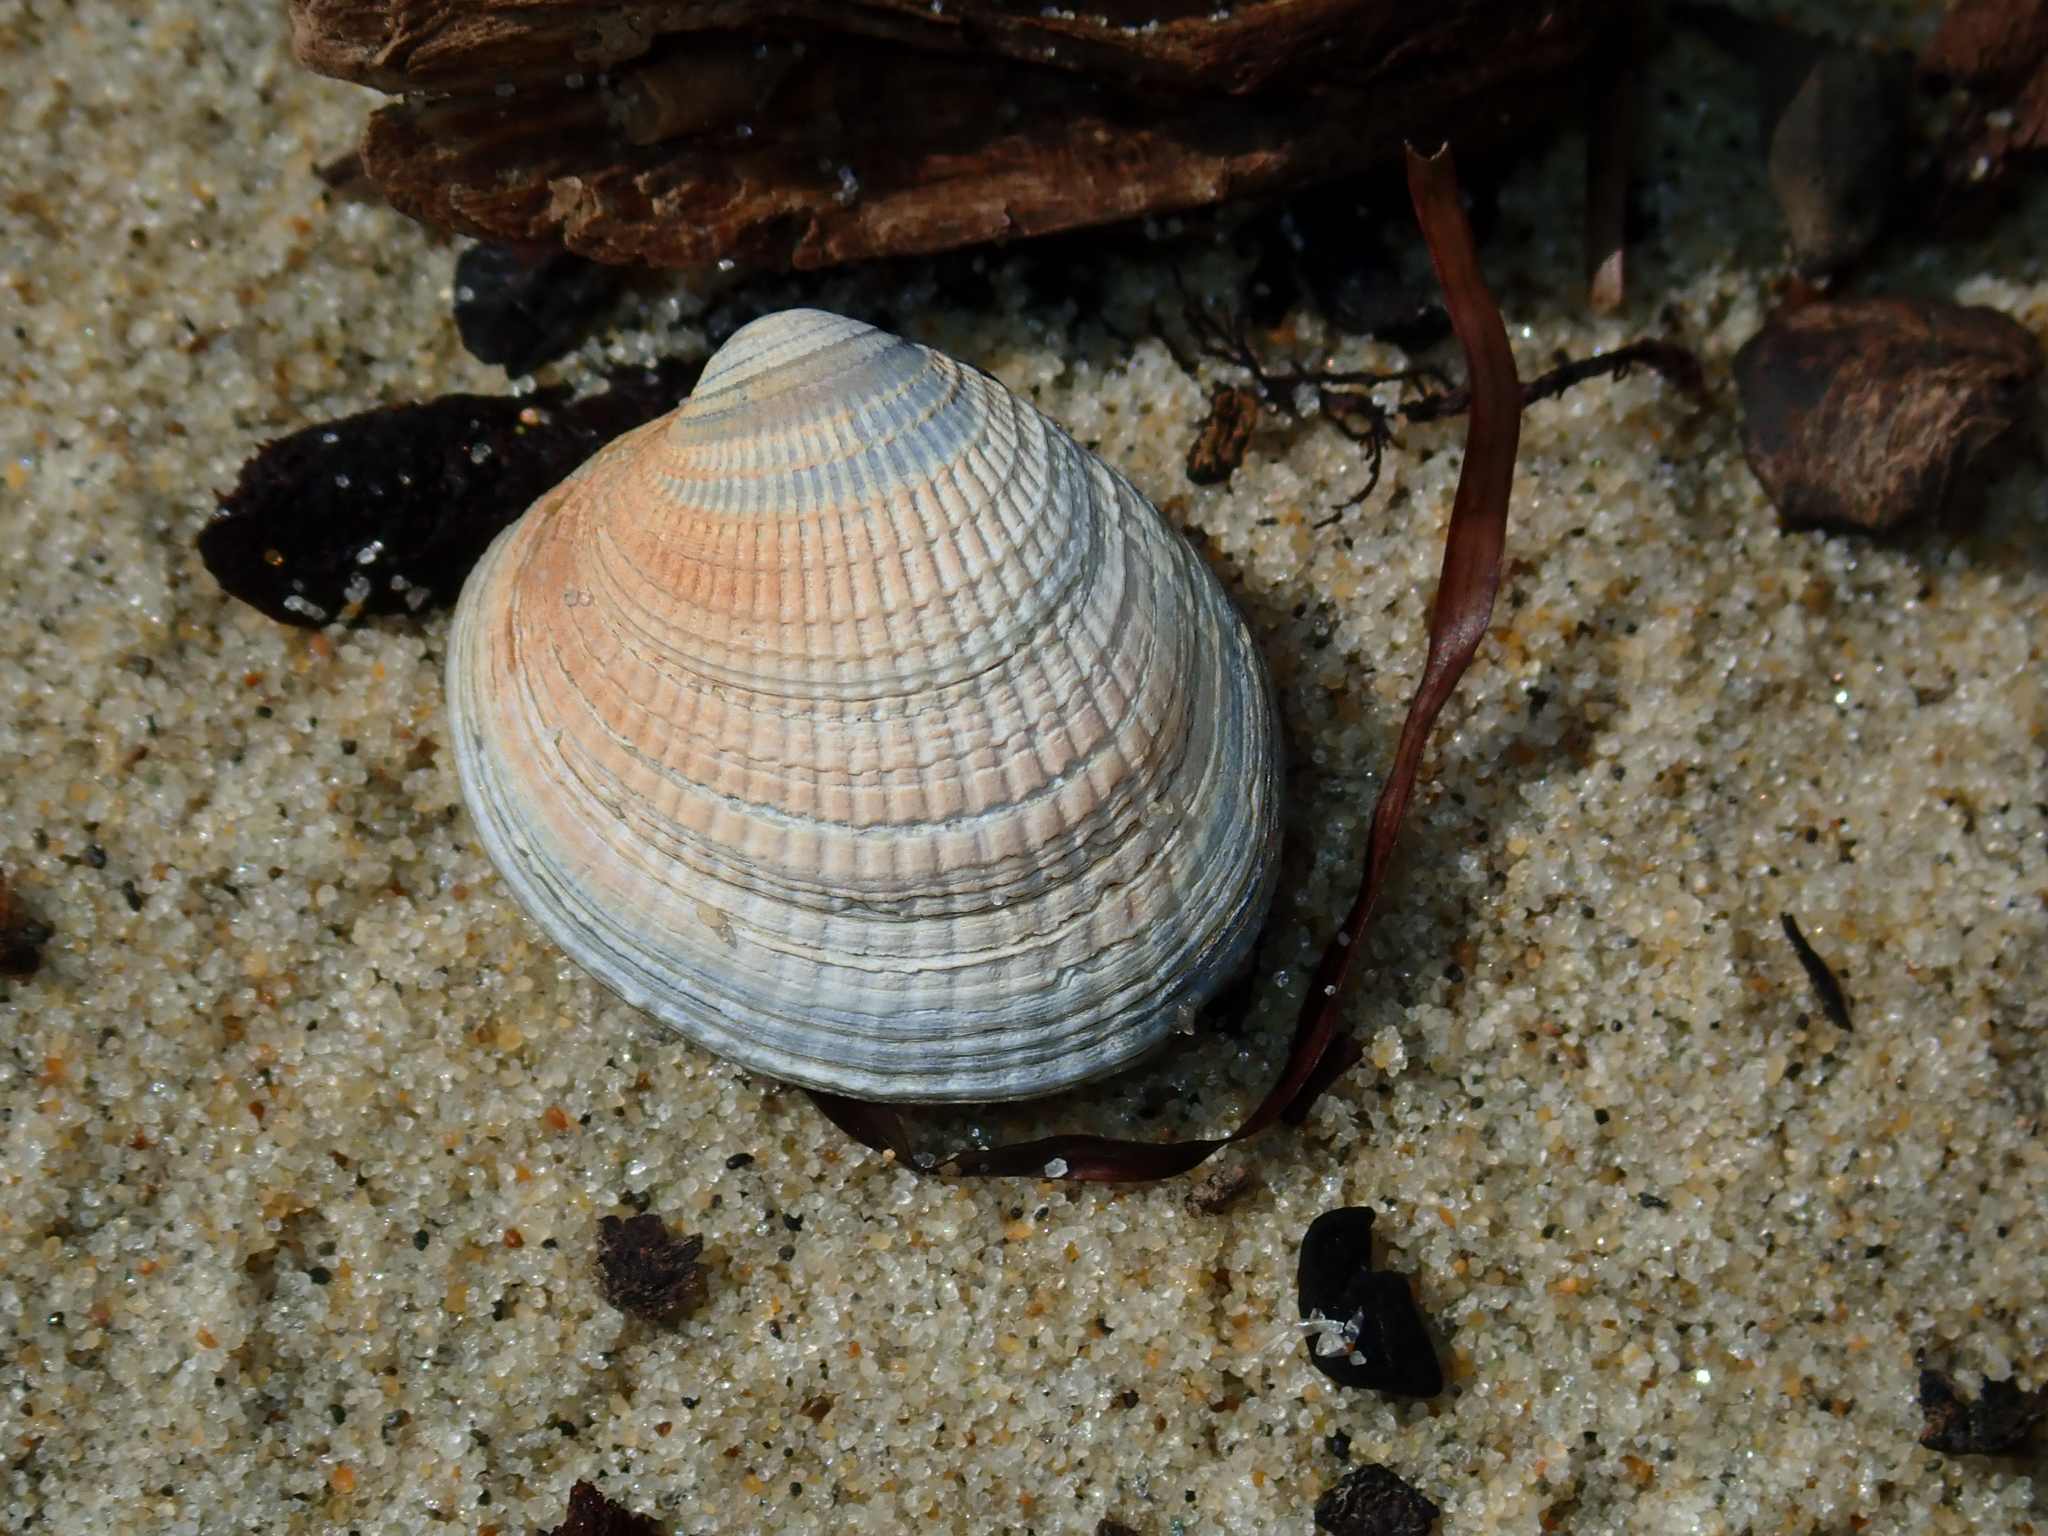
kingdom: Animalia
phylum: Mollusca
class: Bivalvia
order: Venerida
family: Veneridae
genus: Austrovenus
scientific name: Austrovenus stutchburyi
